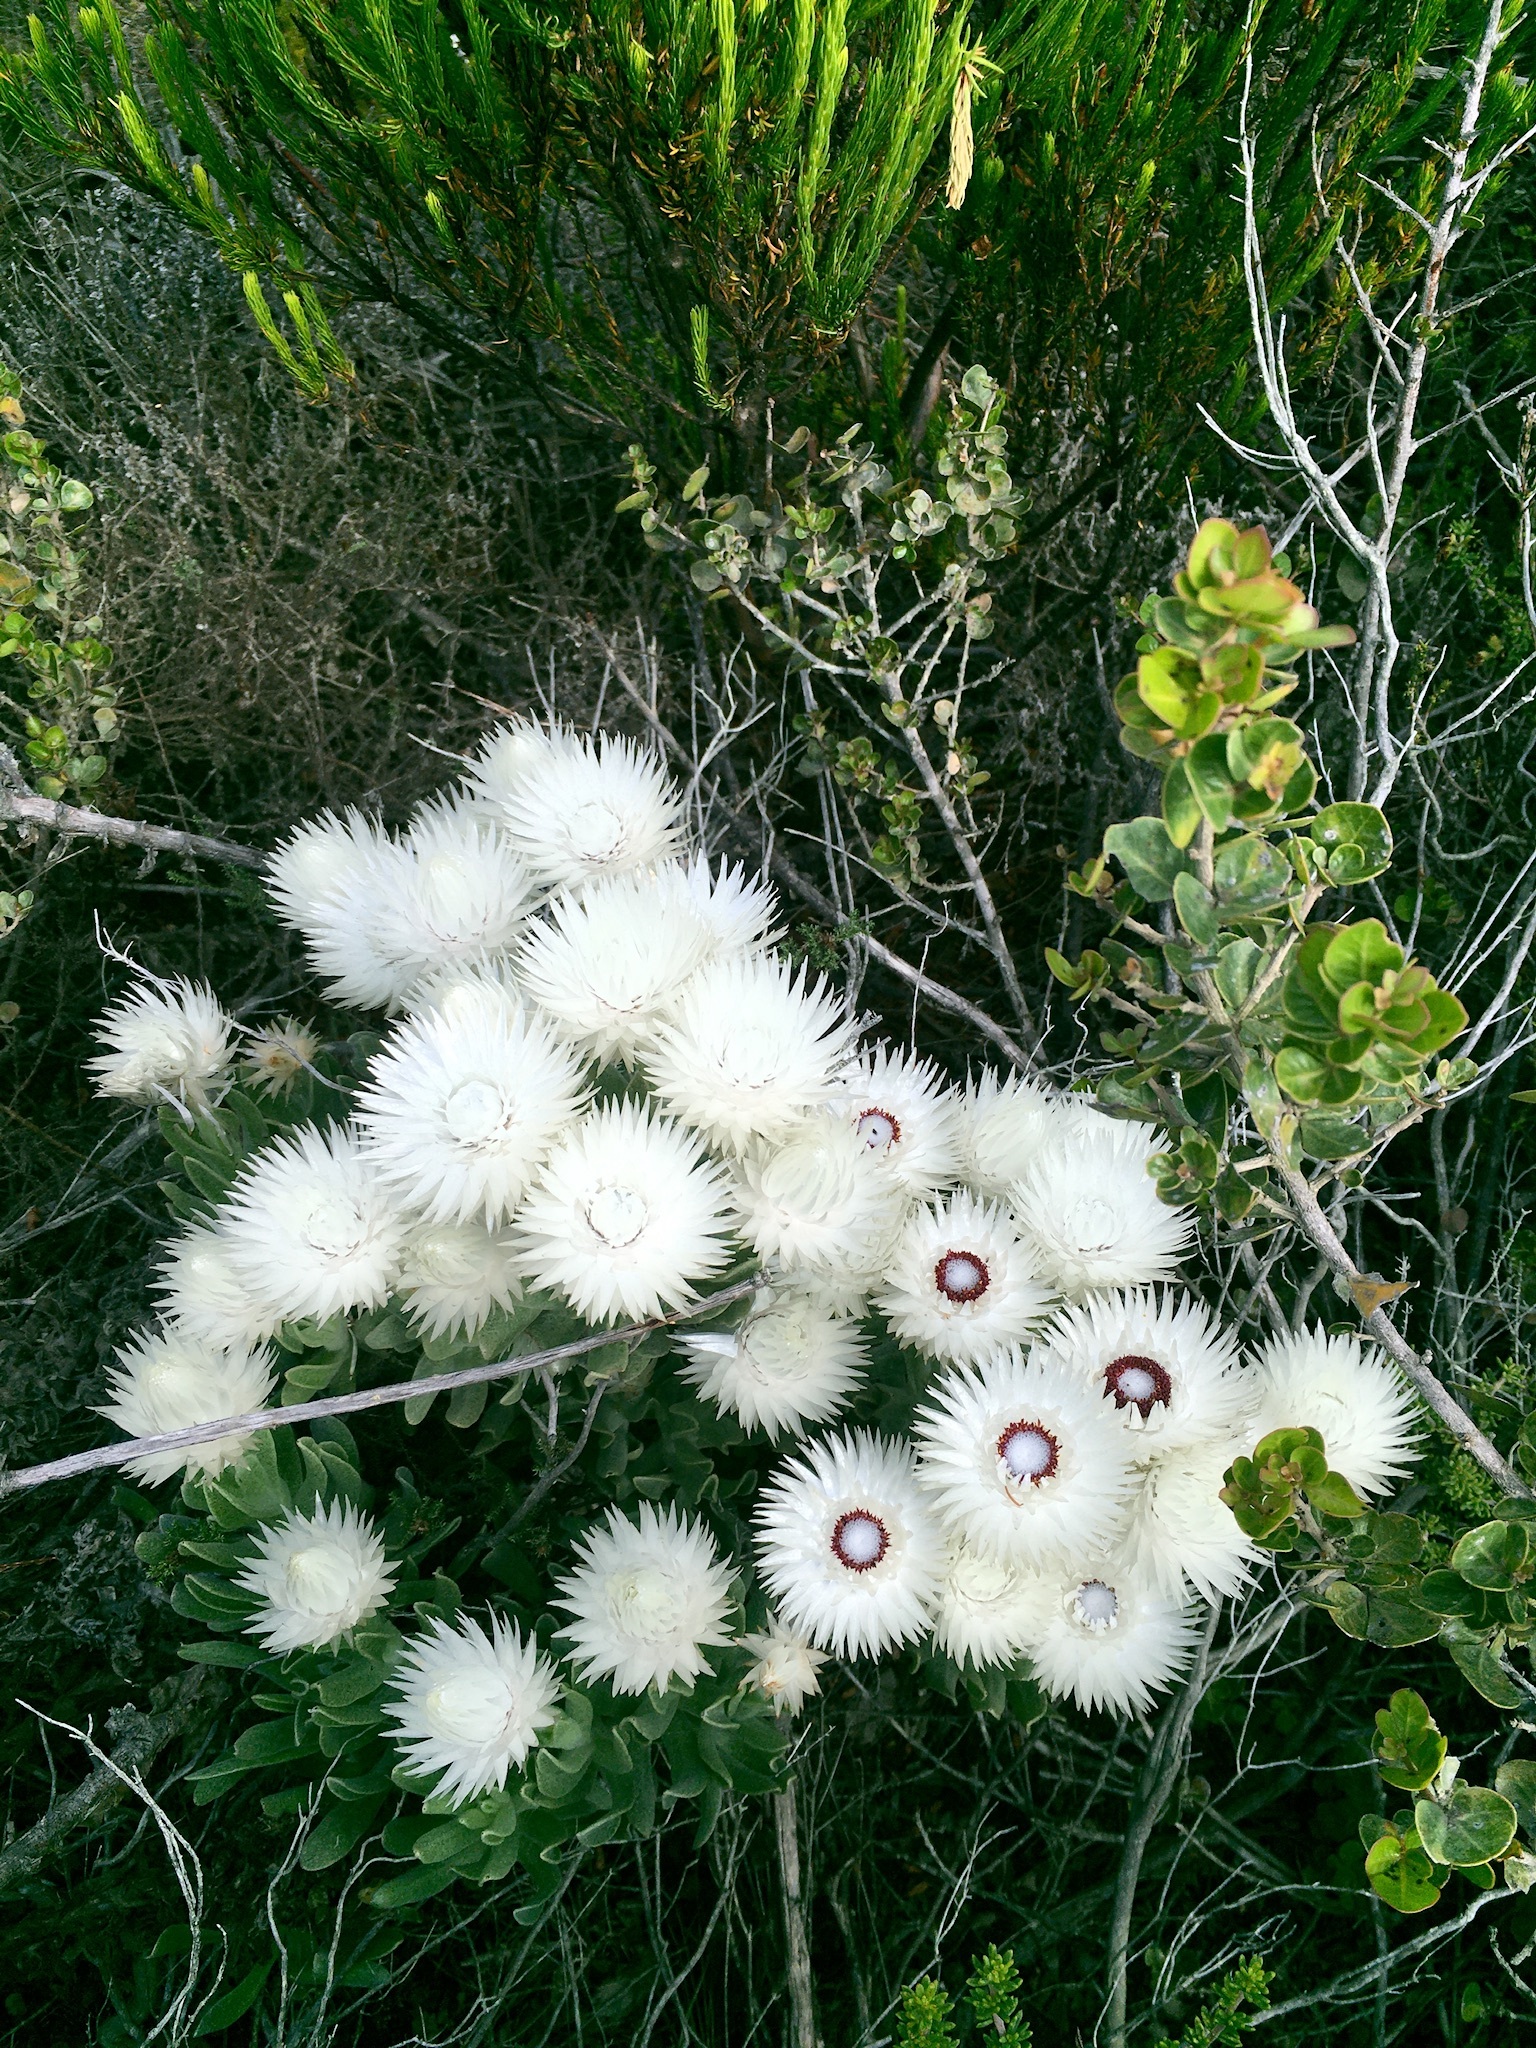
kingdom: Plantae
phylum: Tracheophyta
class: Magnoliopsida
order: Asterales
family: Asteraceae
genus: Syncarpha
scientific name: Syncarpha vestita
